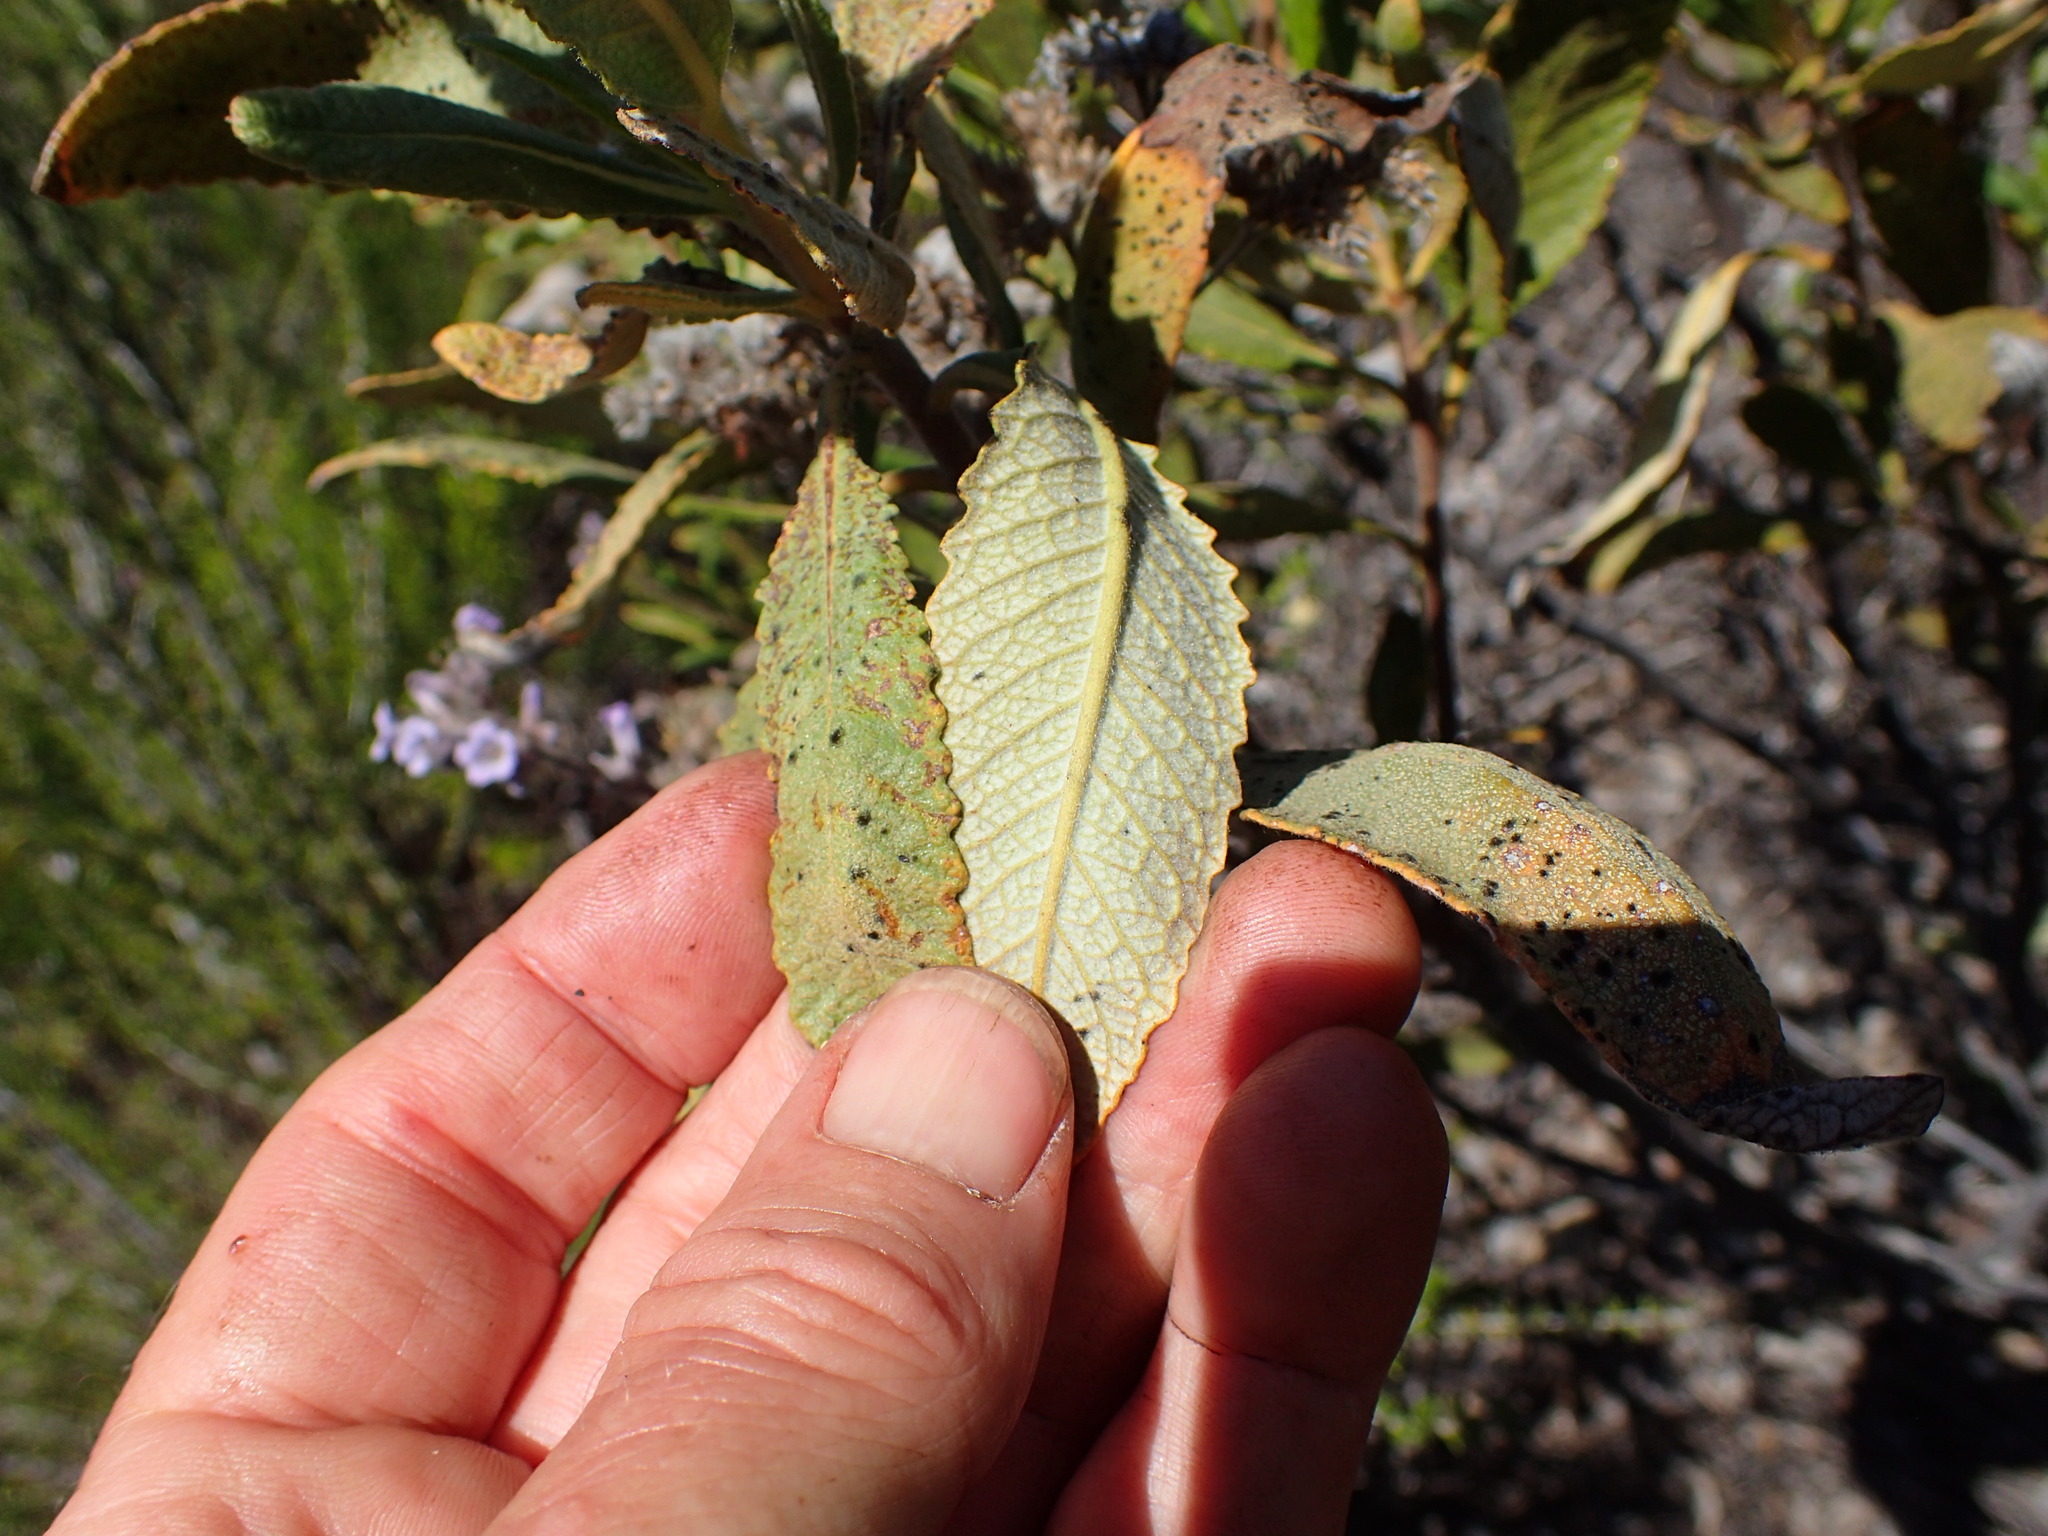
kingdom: Plantae
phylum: Tracheophyta
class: Magnoliopsida
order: Boraginales
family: Namaceae
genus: Eriodictyon
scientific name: Eriodictyon crassifolium
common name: Thick-leaf yerba-santa
